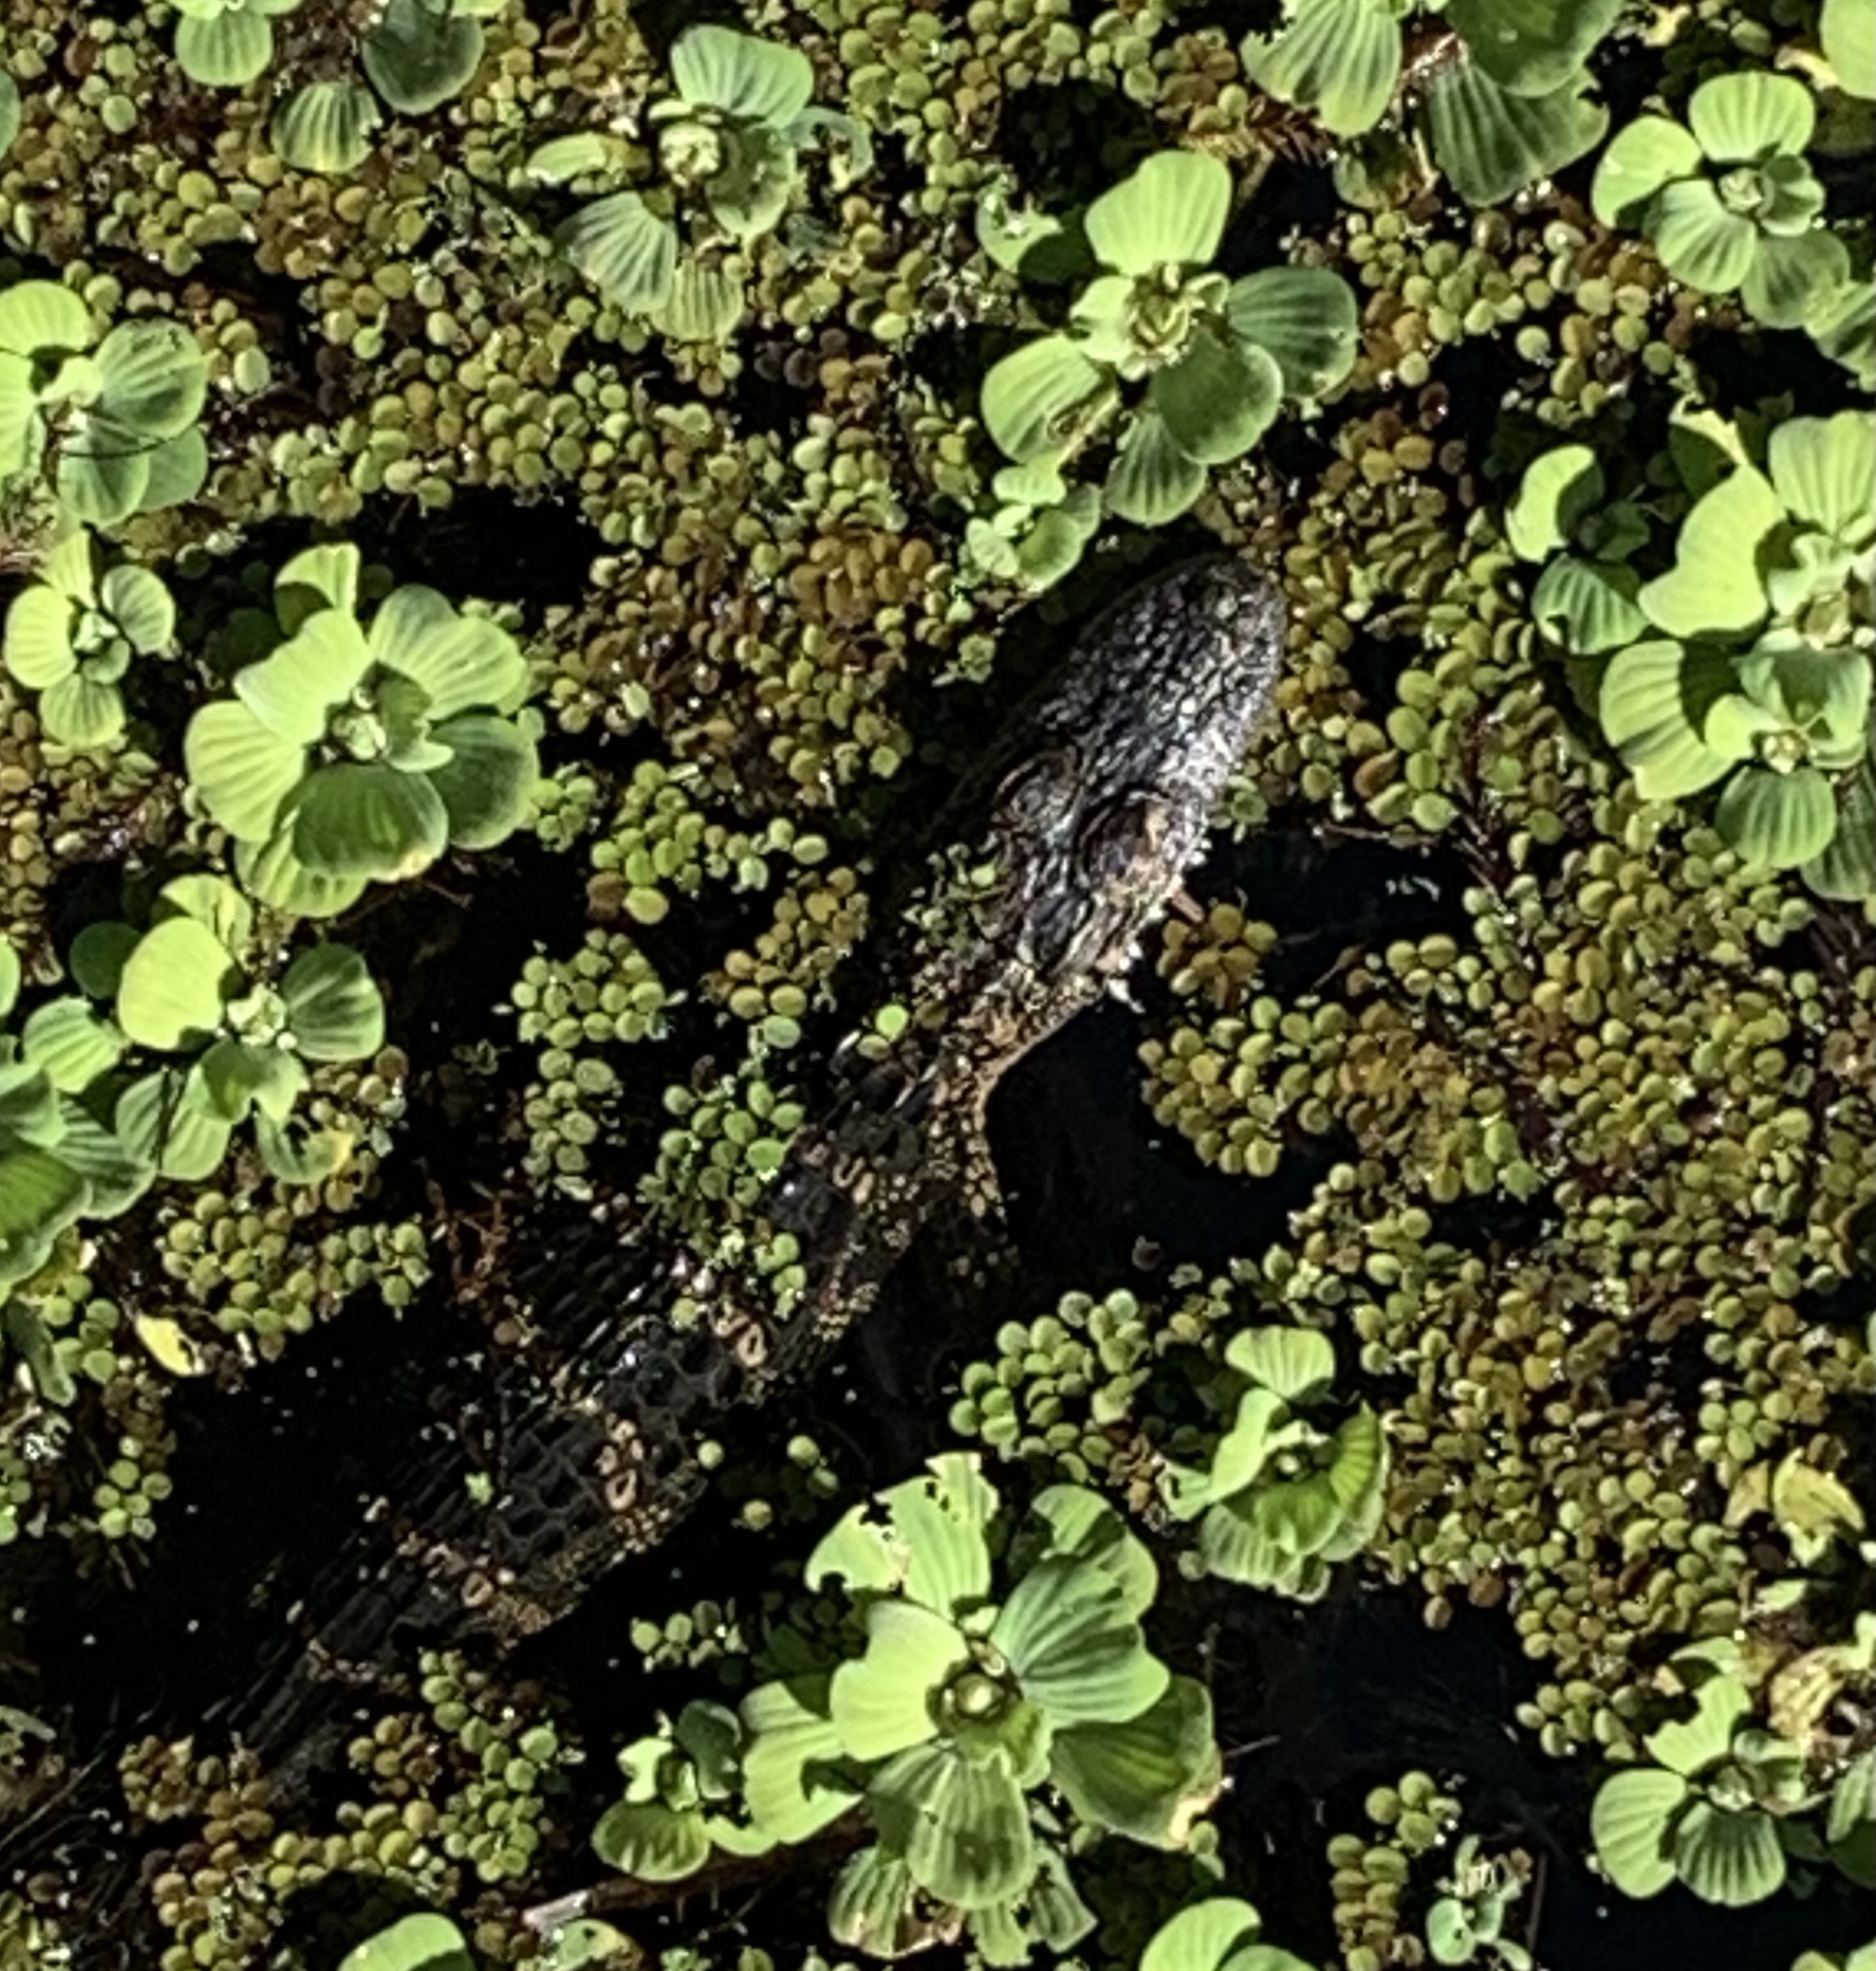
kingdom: Animalia
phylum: Chordata
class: Crocodylia
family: Alligatoridae
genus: Alligator
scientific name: Alligator mississippiensis
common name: American alligator
